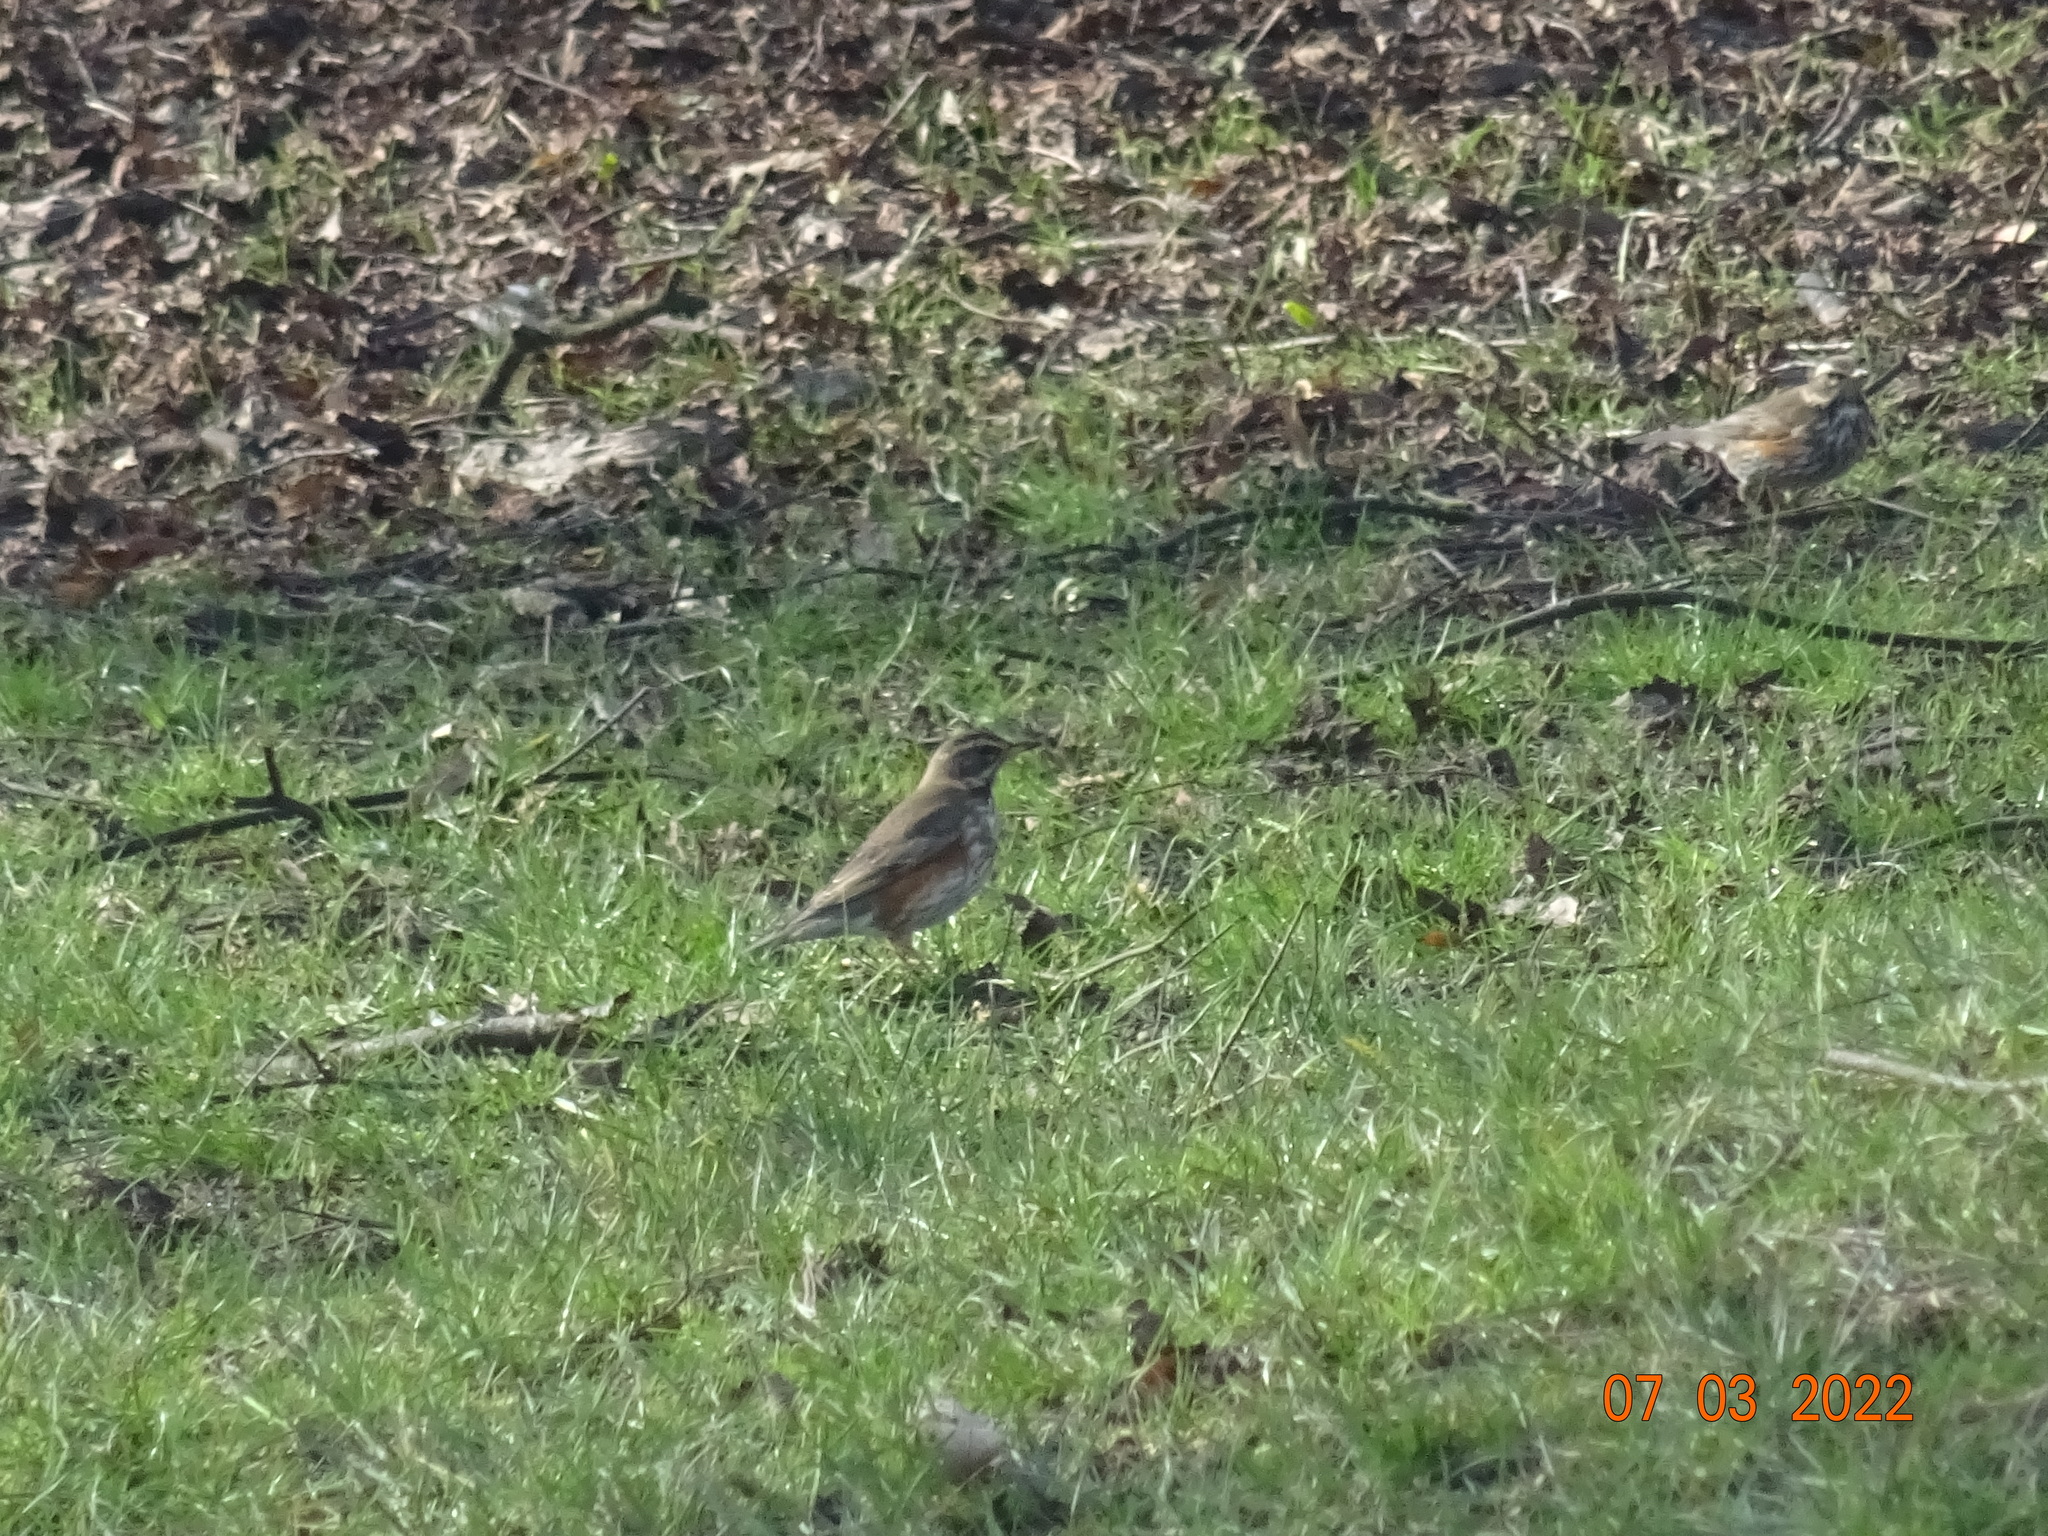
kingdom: Animalia
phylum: Chordata
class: Aves
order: Passeriformes
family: Turdidae
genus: Turdus
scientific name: Turdus iliacus
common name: Redwing
